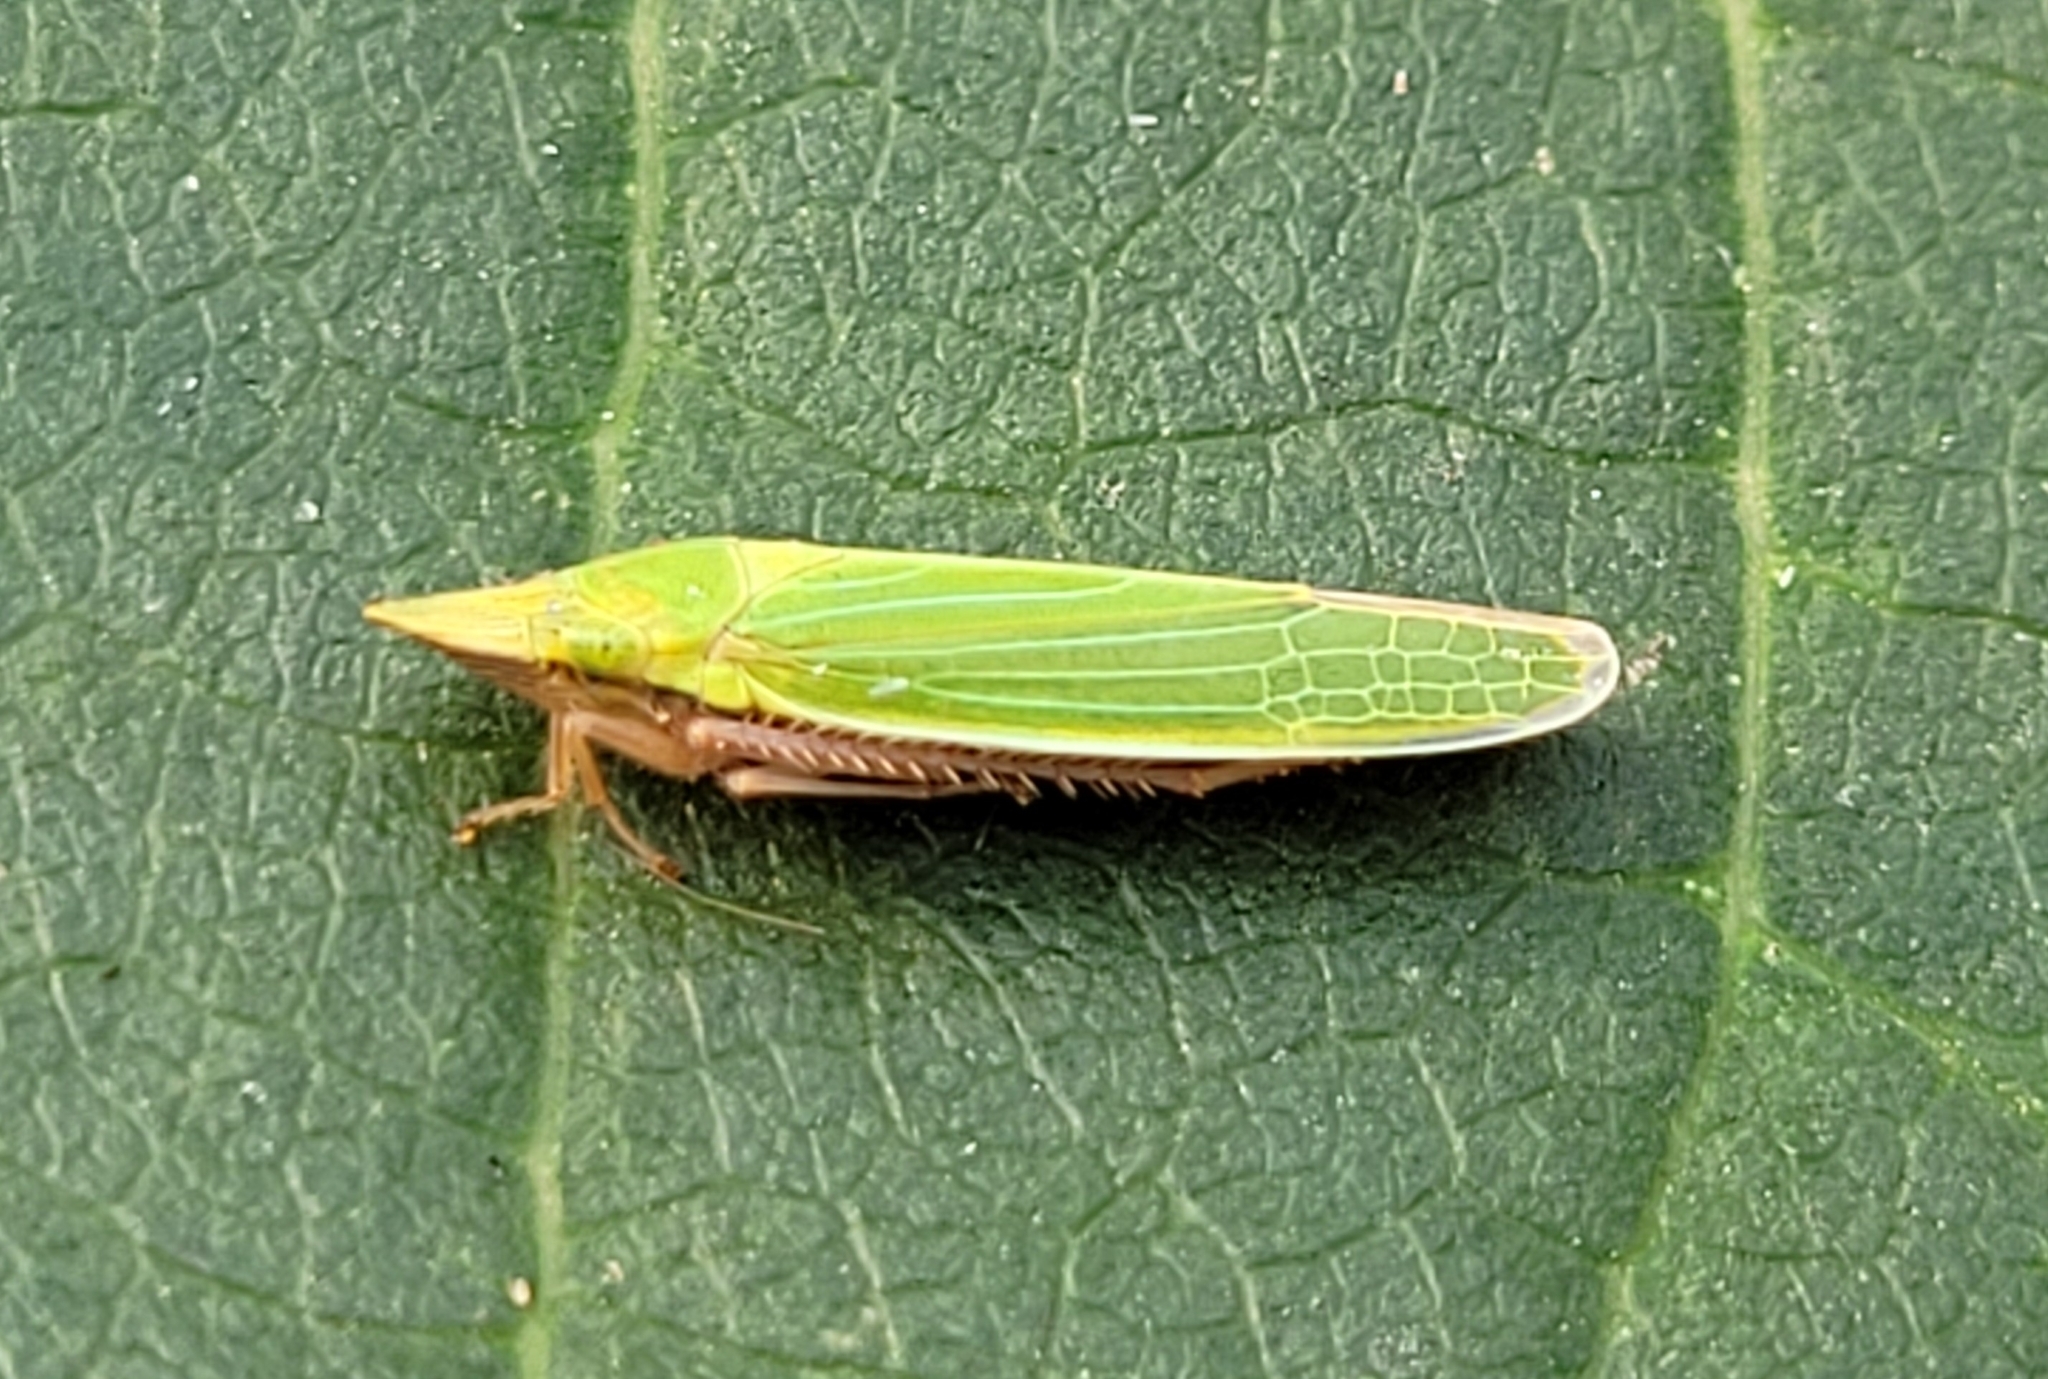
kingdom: Animalia
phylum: Arthropoda
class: Insecta
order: Hemiptera
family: Cicadellidae
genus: Draeculacephala
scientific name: Draeculacephala robinsoni
